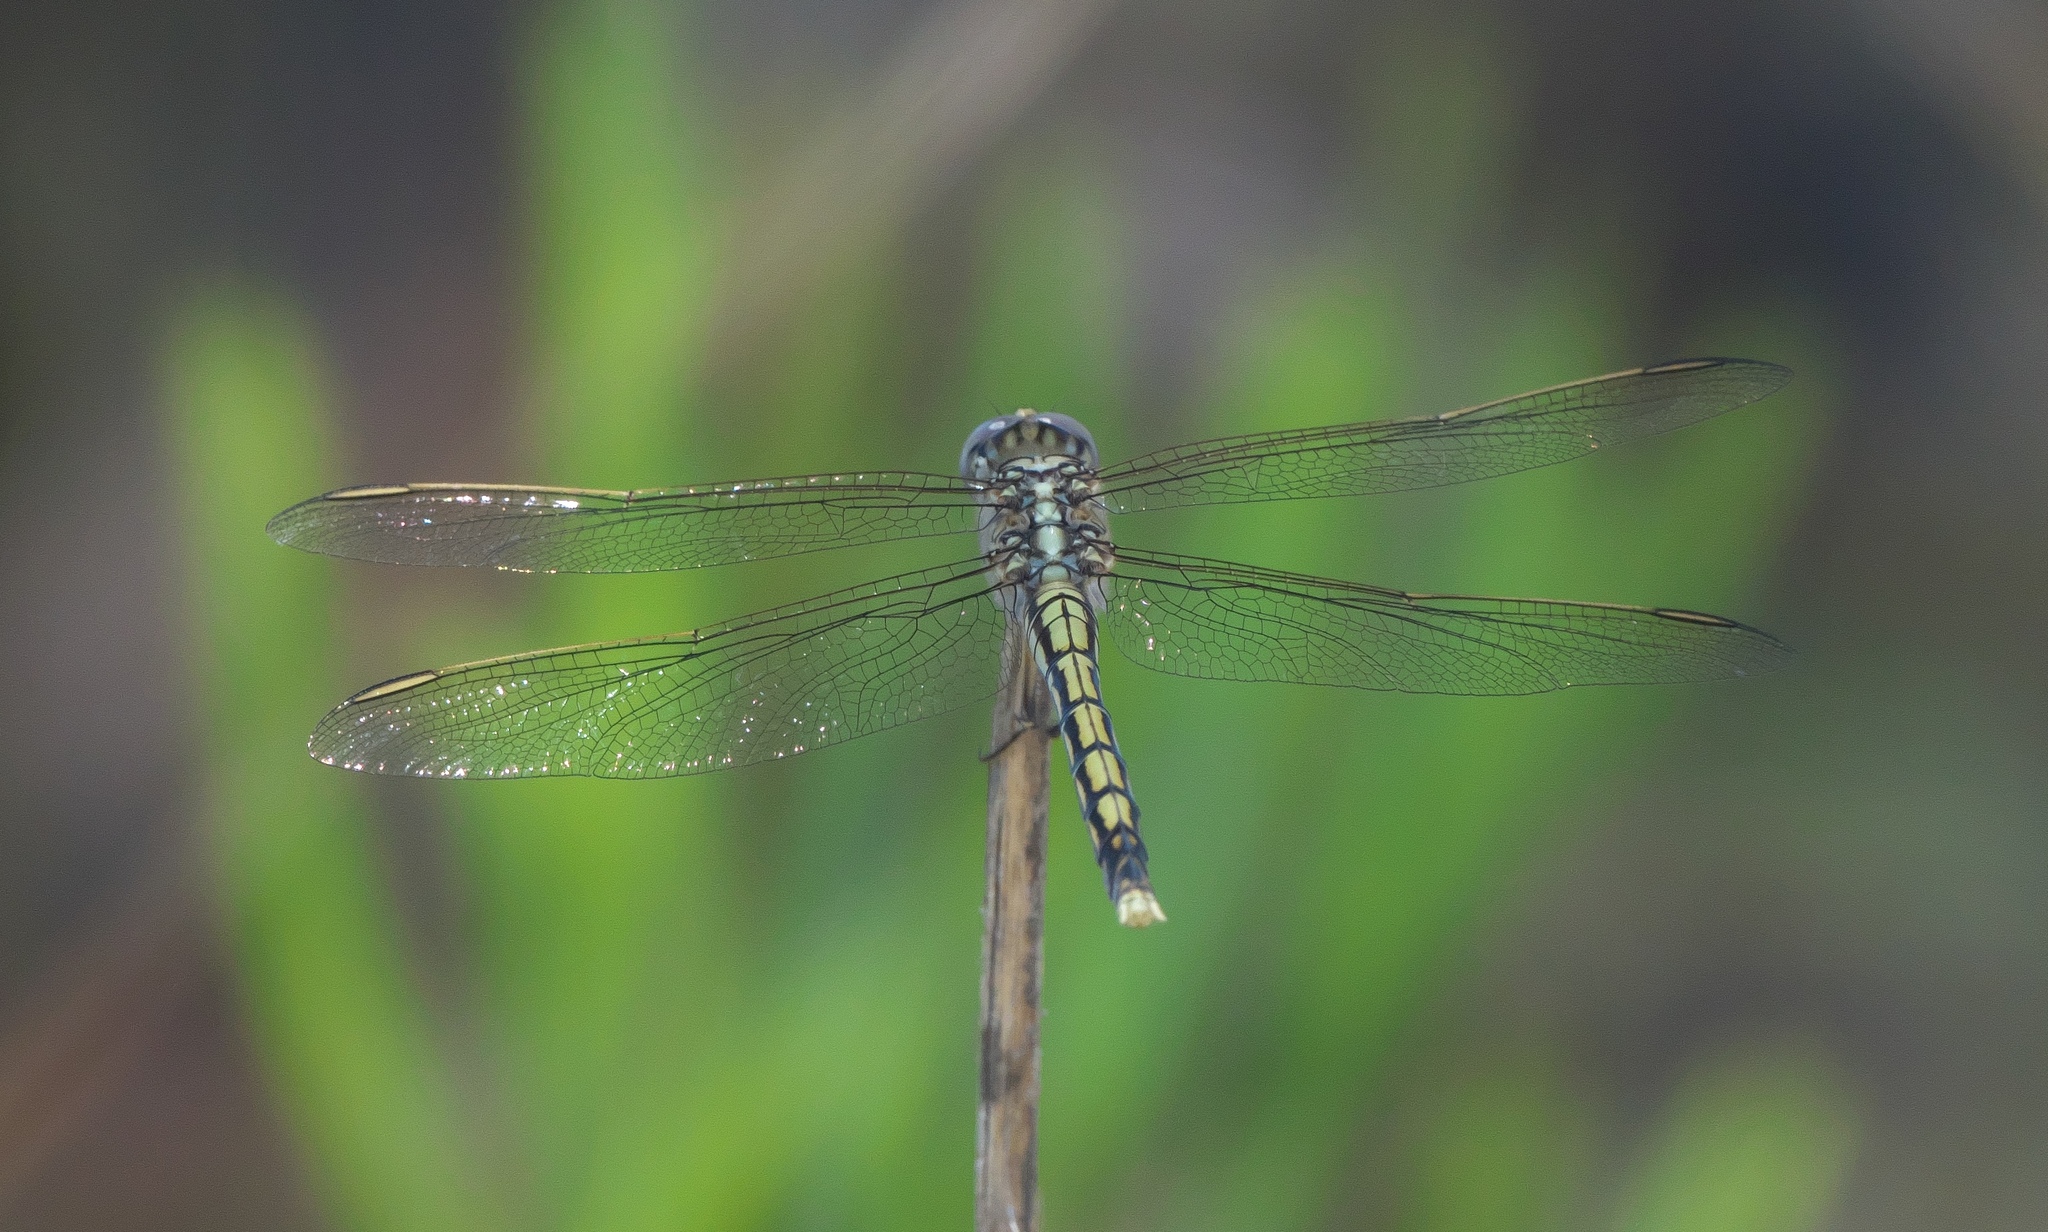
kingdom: Animalia
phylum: Arthropoda
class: Insecta
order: Odonata
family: Libellulidae
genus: Orthetrum
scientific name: Orthetrum caledonicum
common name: Blue skimmer
